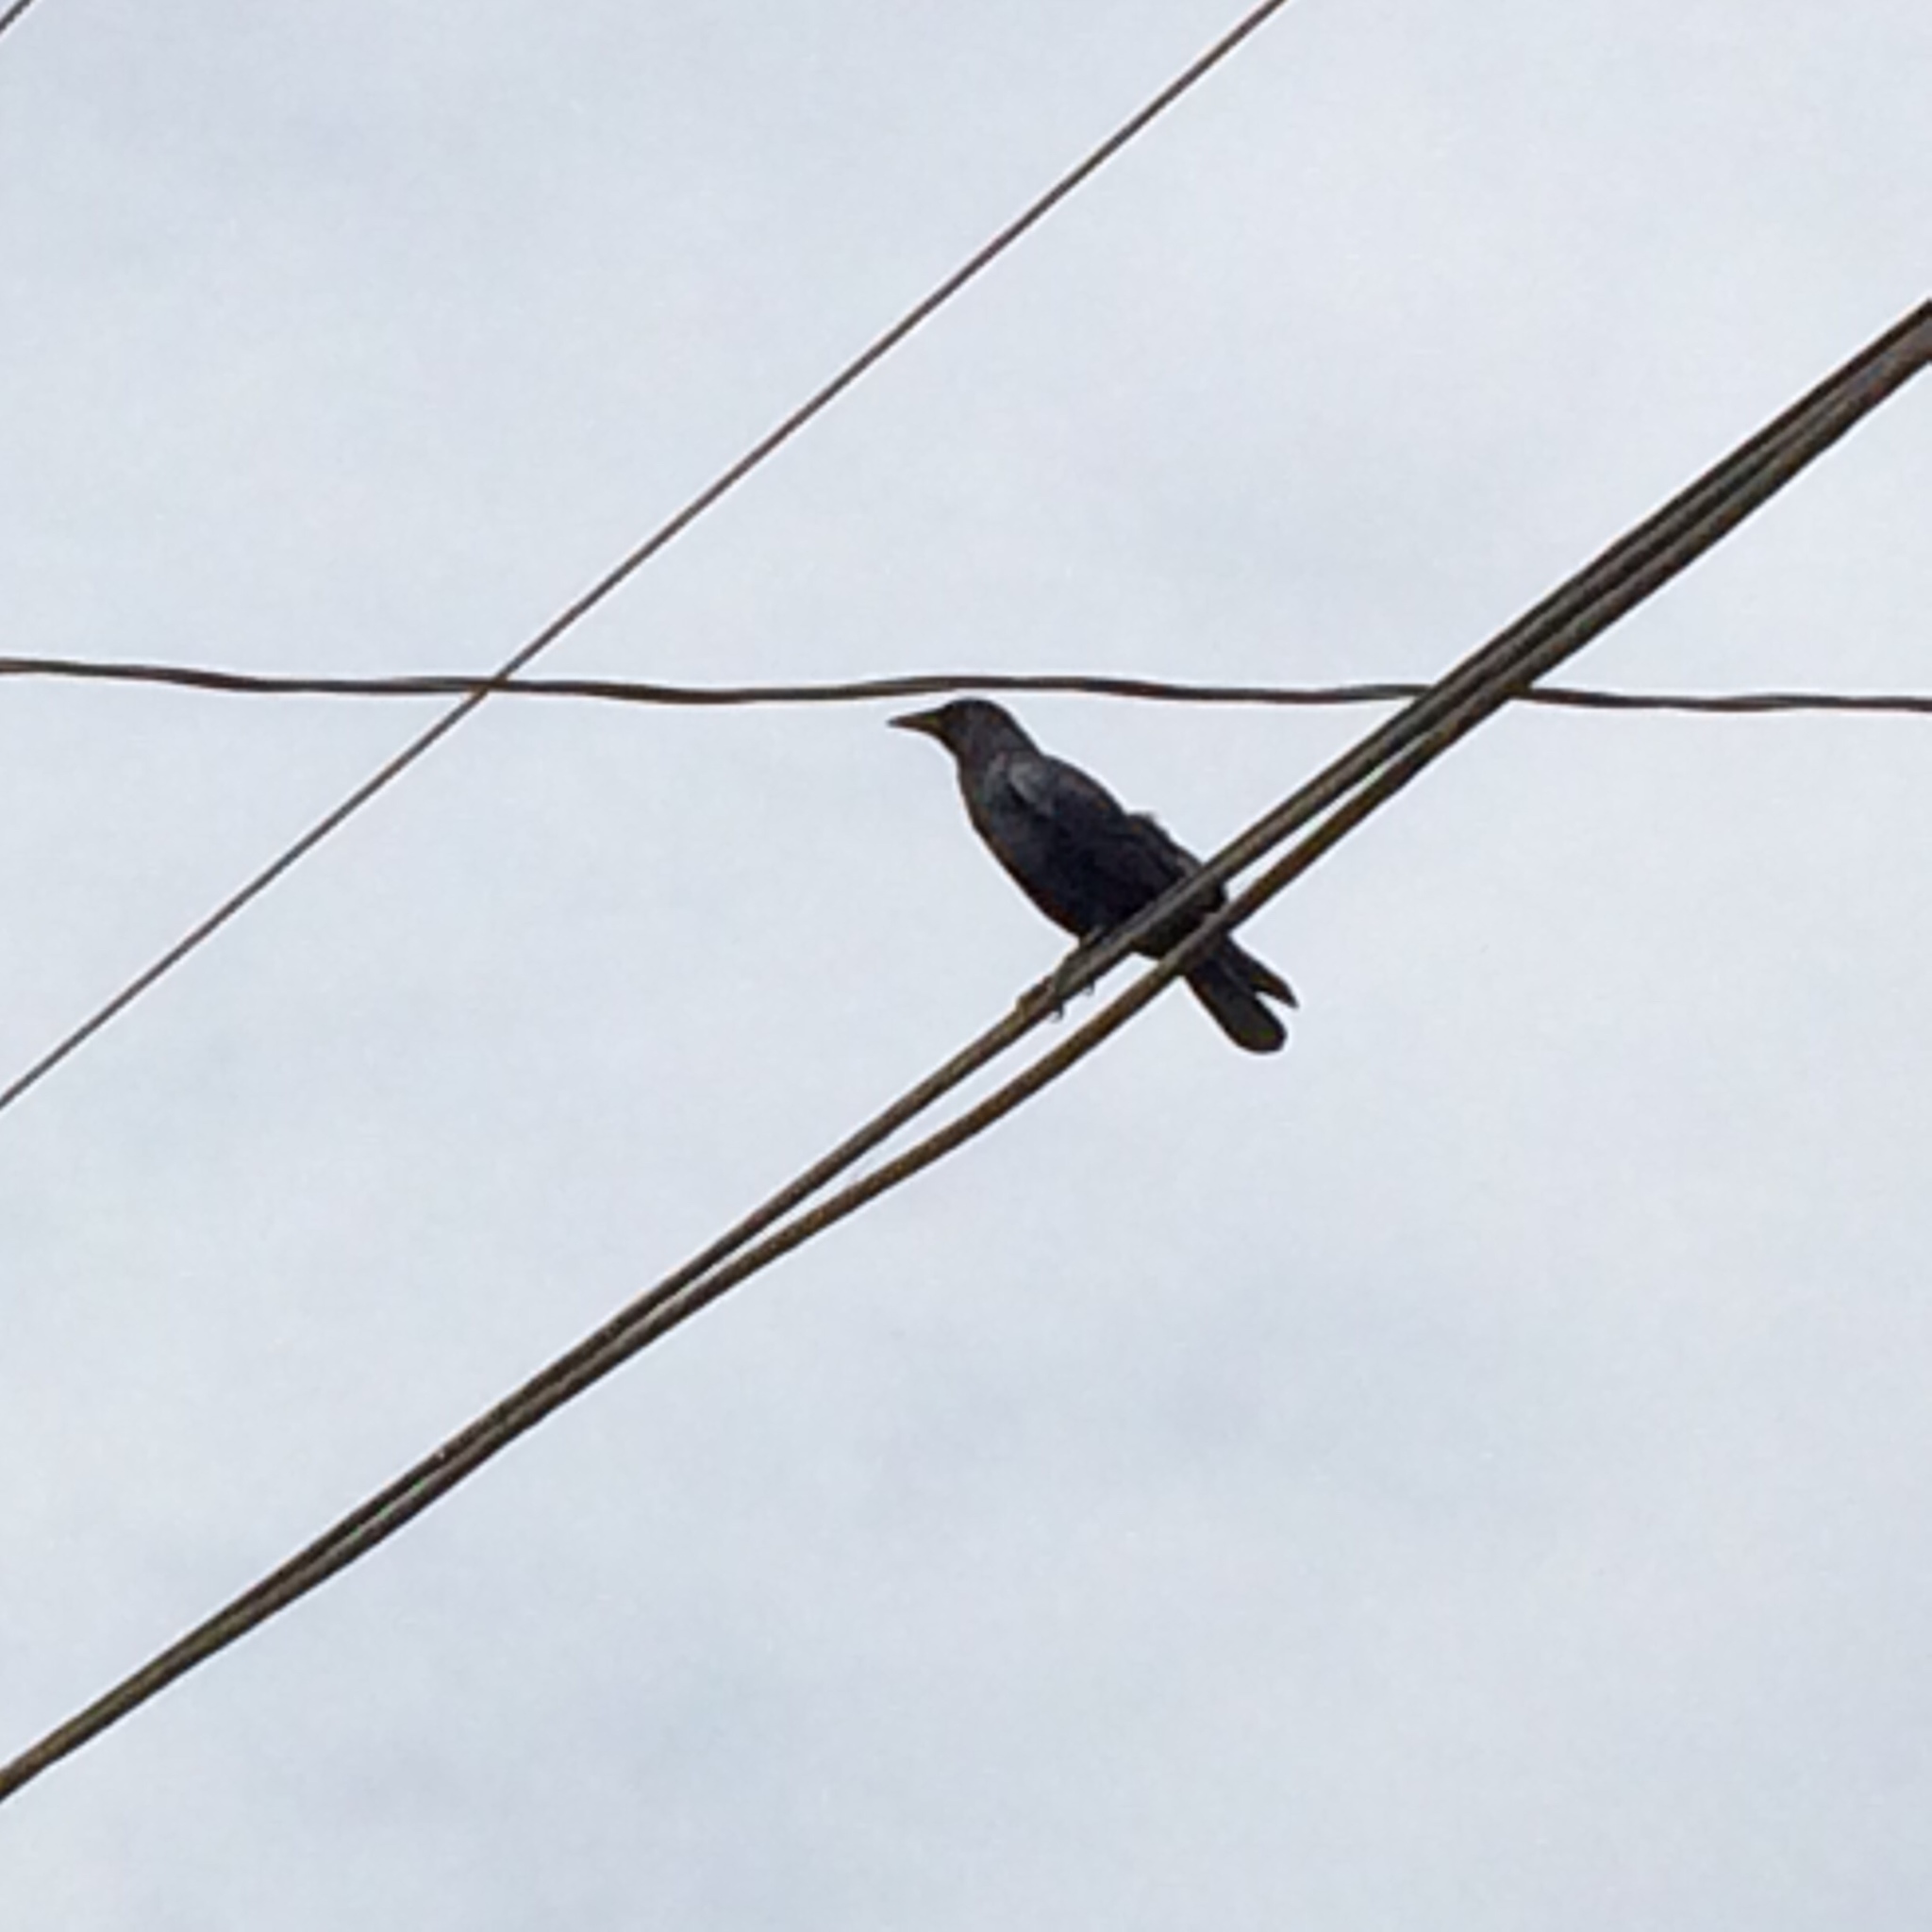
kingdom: Animalia
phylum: Chordata
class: Aves
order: Passeriformes
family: Corvidae
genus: Corvus
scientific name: Corvus brachyrhynchos
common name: American crow
